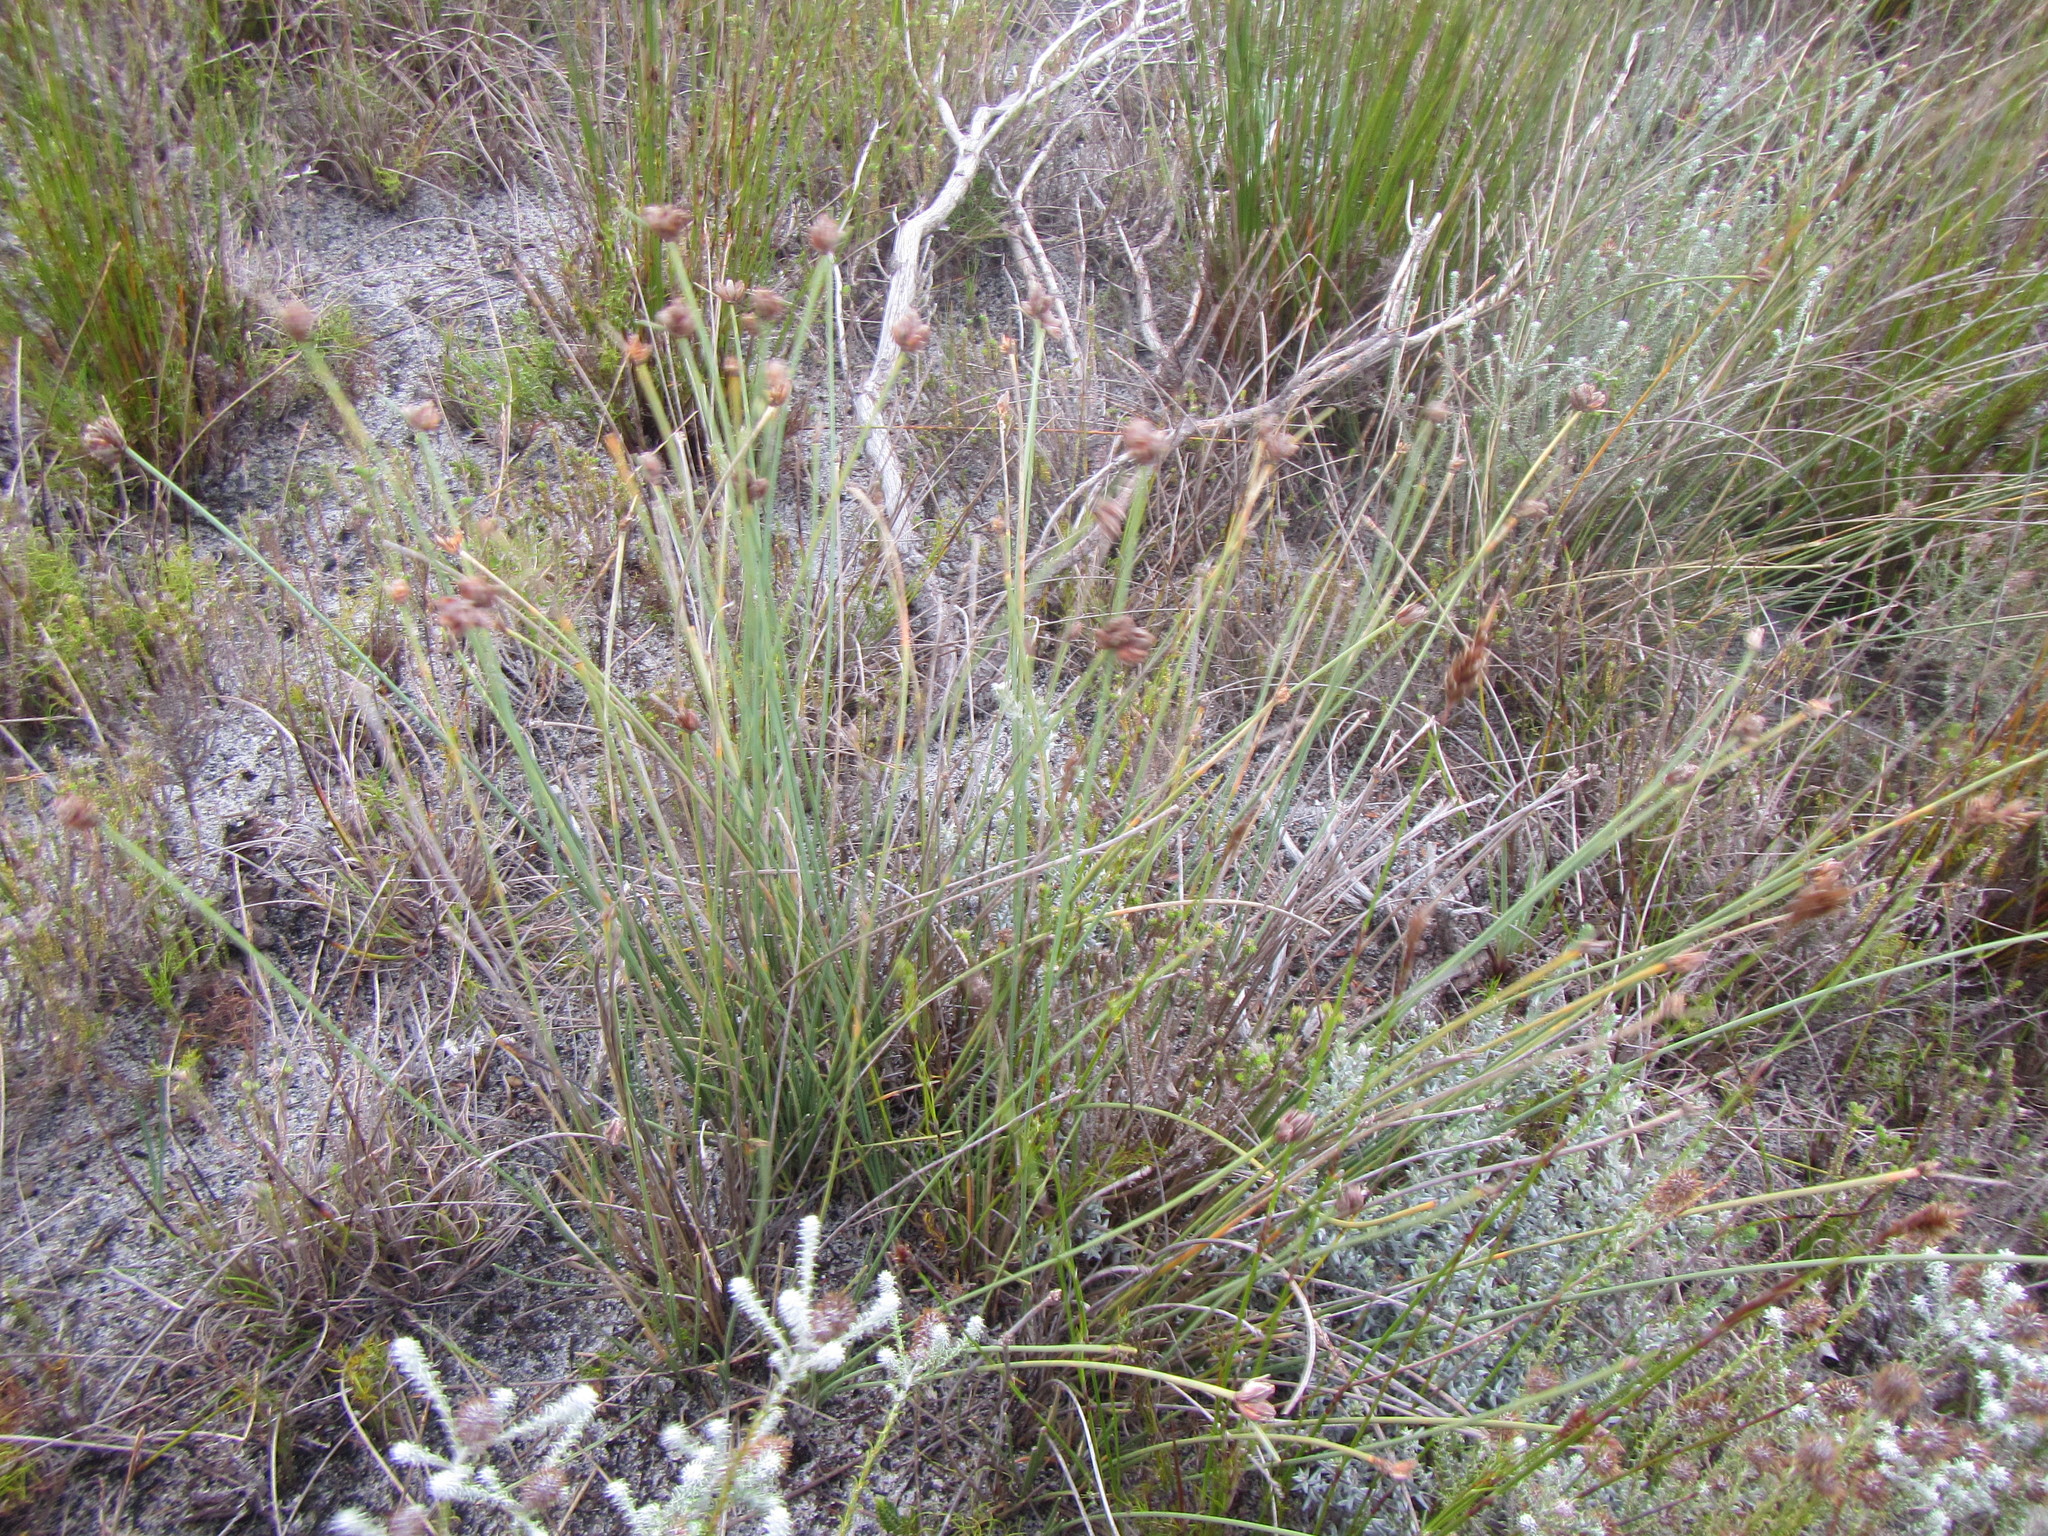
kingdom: Plantae
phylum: Tracheophyta
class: Liliopsida
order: Poales
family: Cyperaceae
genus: Ficinia
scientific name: Ficinia pinguior
